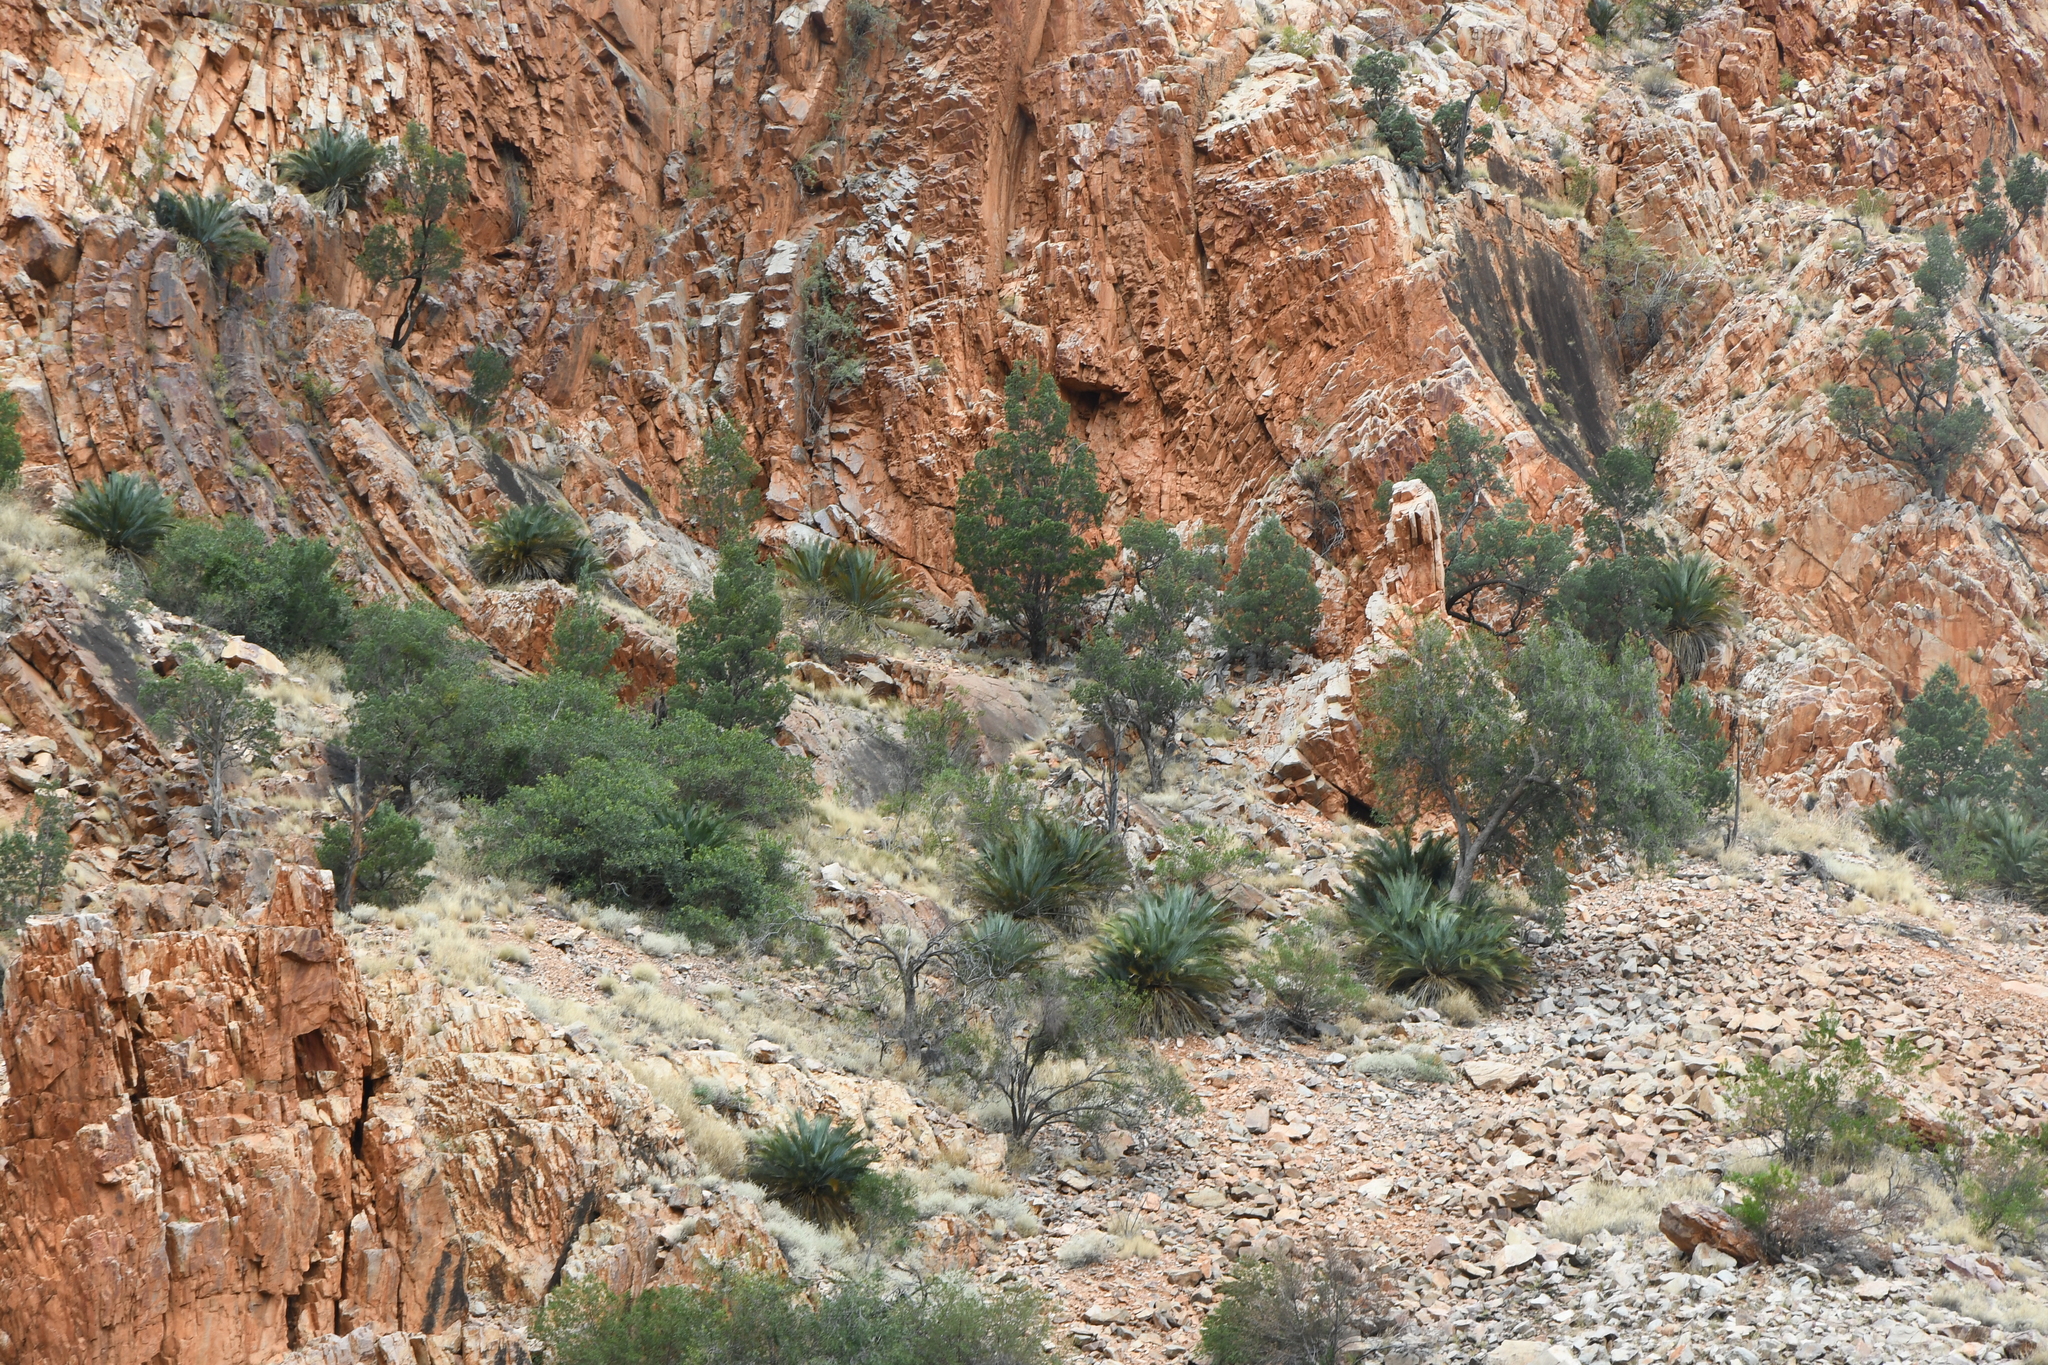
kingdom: Plantae
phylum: Tracheophyta
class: Cycadopsida
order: Cycadales
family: Zamiaceae
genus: Macrozamia
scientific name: Macrozamia macdonnellii
